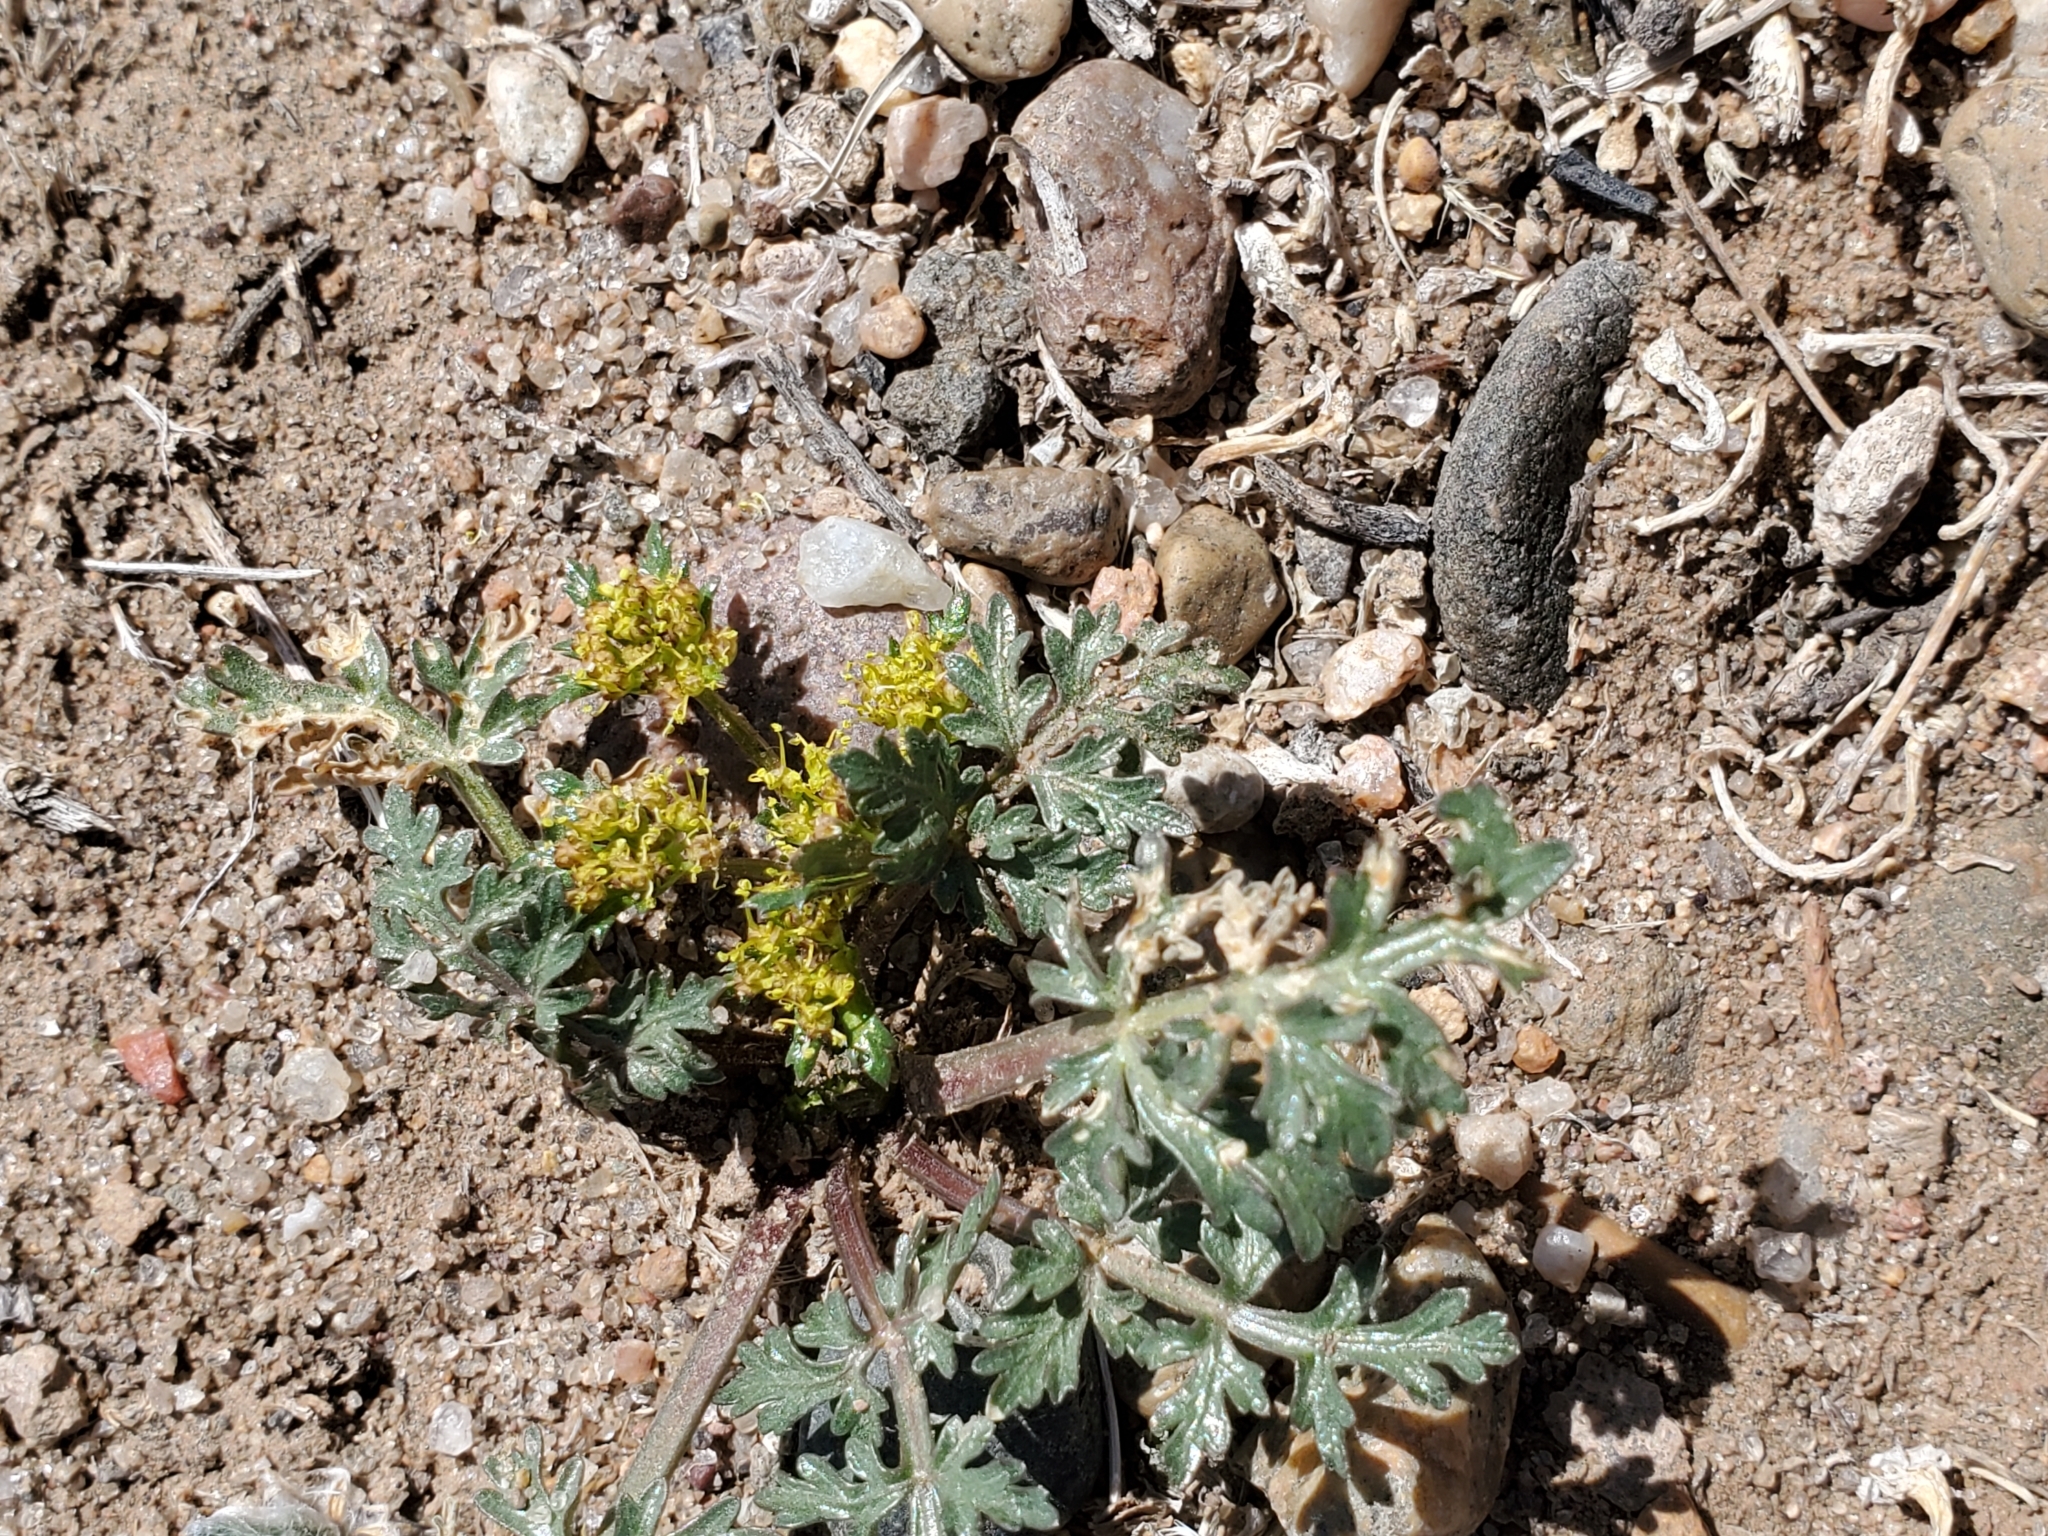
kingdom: Plantae
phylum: Tracheophyta
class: Magnoliopsida
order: Apiales
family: Apiaceae
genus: Cymopterus
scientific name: Cymopterus glomeratus
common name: Plains spring parsley
